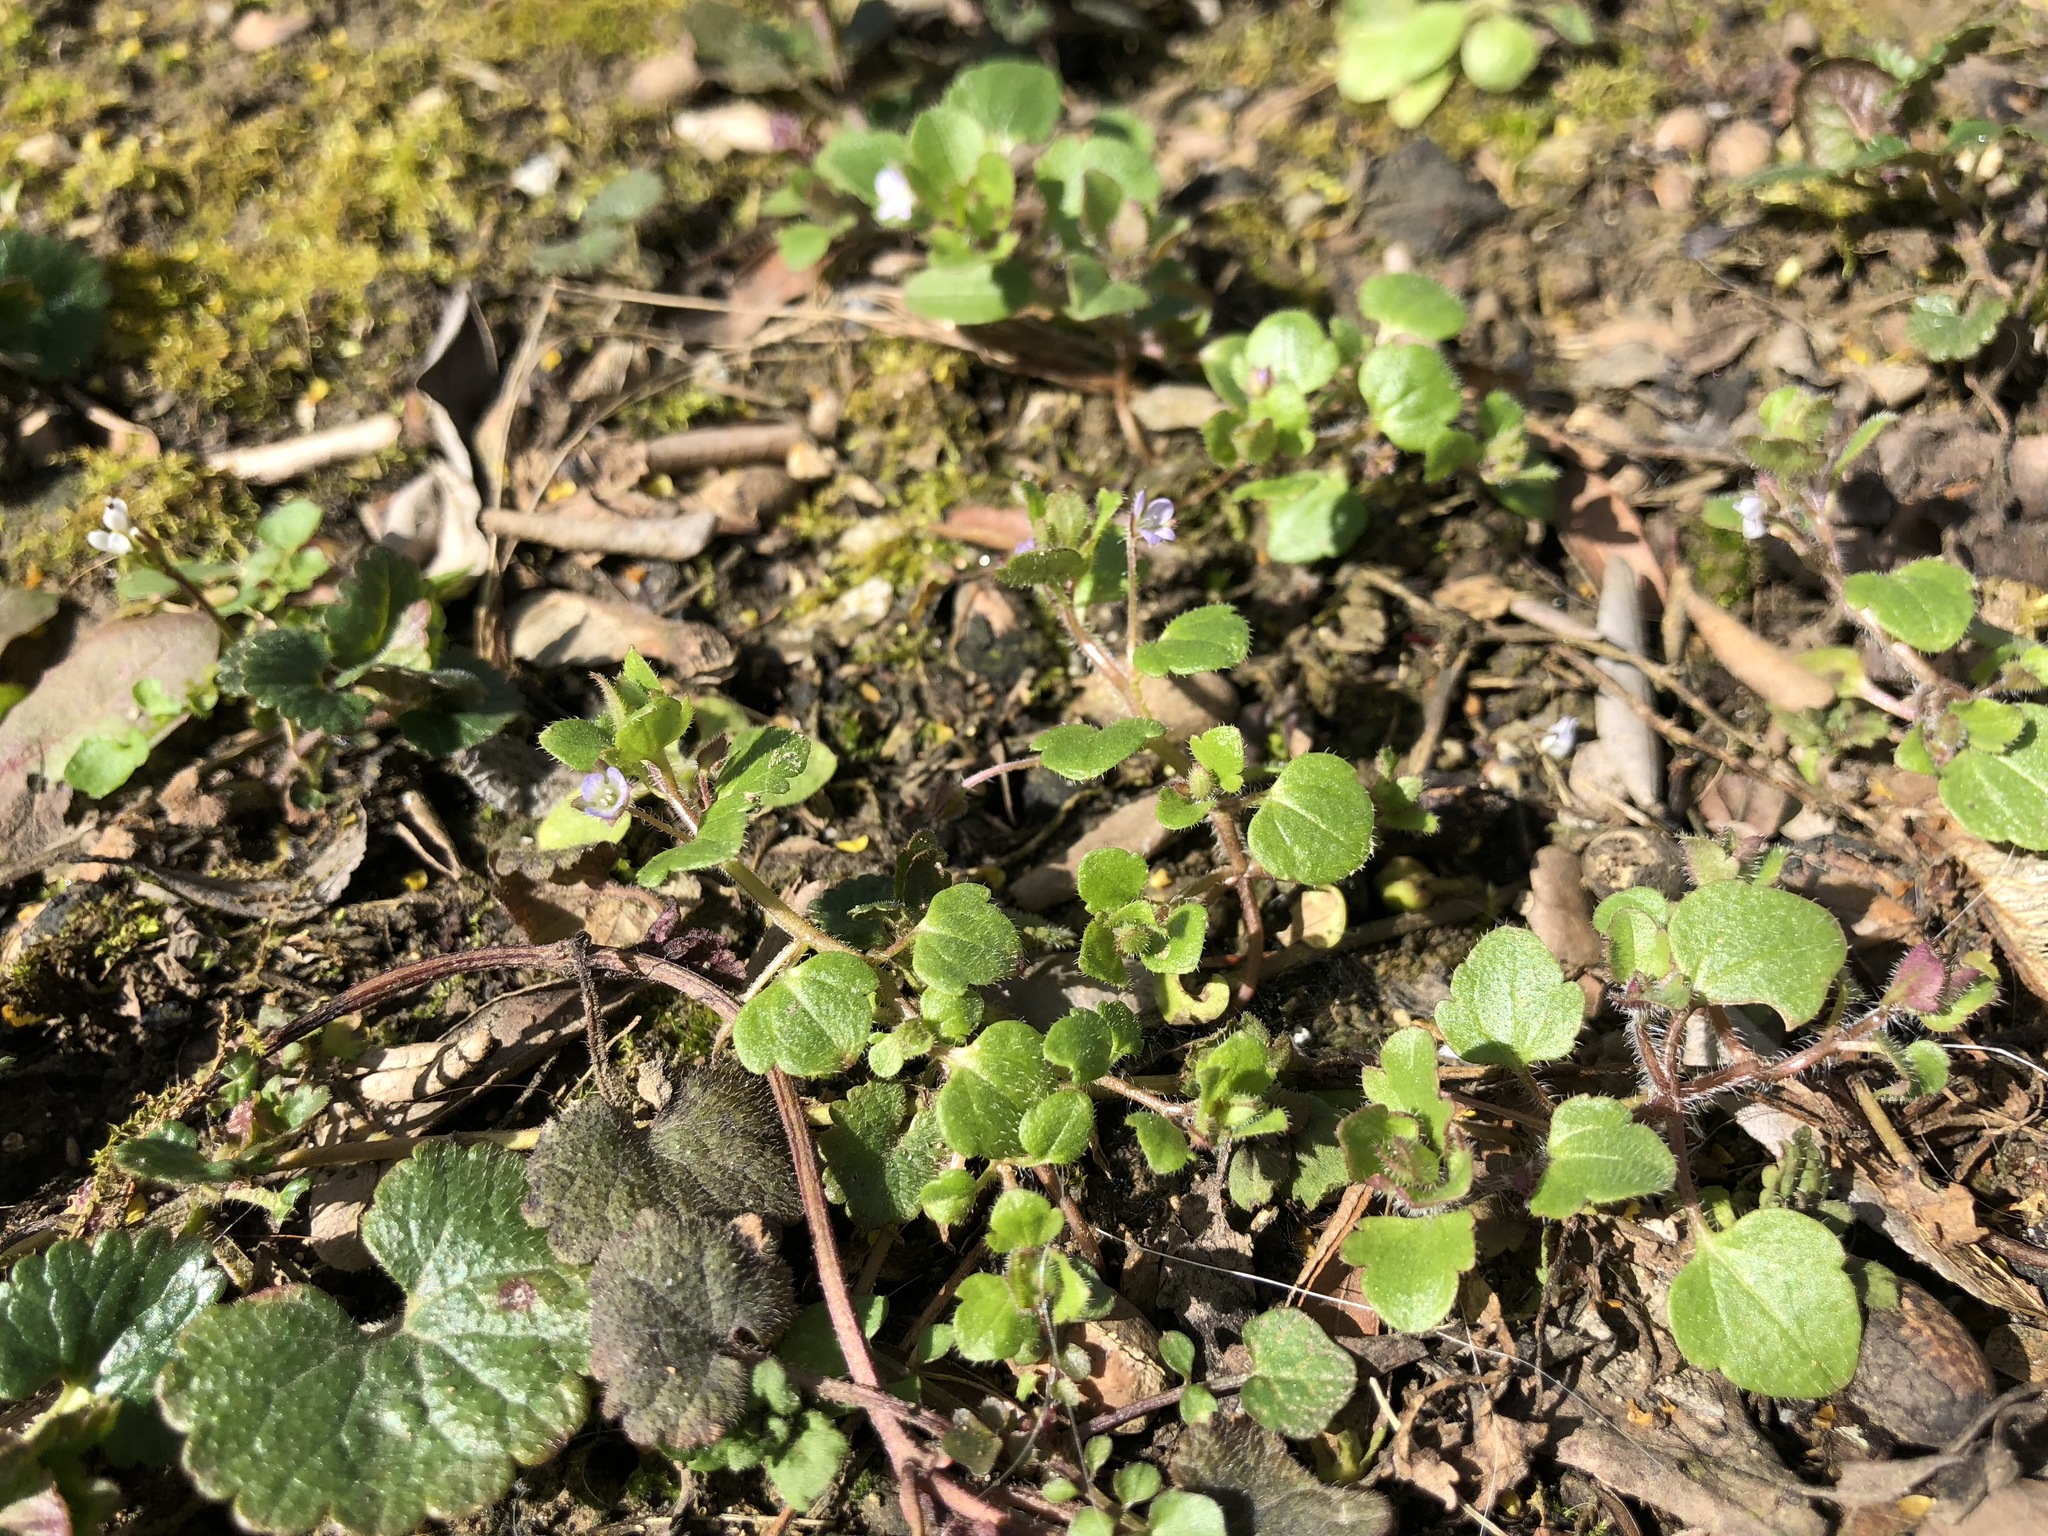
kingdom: Plantae
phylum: Tracheophyta
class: Magnoliopsida
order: Lamiales
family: Plantaginaceae
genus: Veronica
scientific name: Veronica hederifolia
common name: Ivy-leaved speedwell
